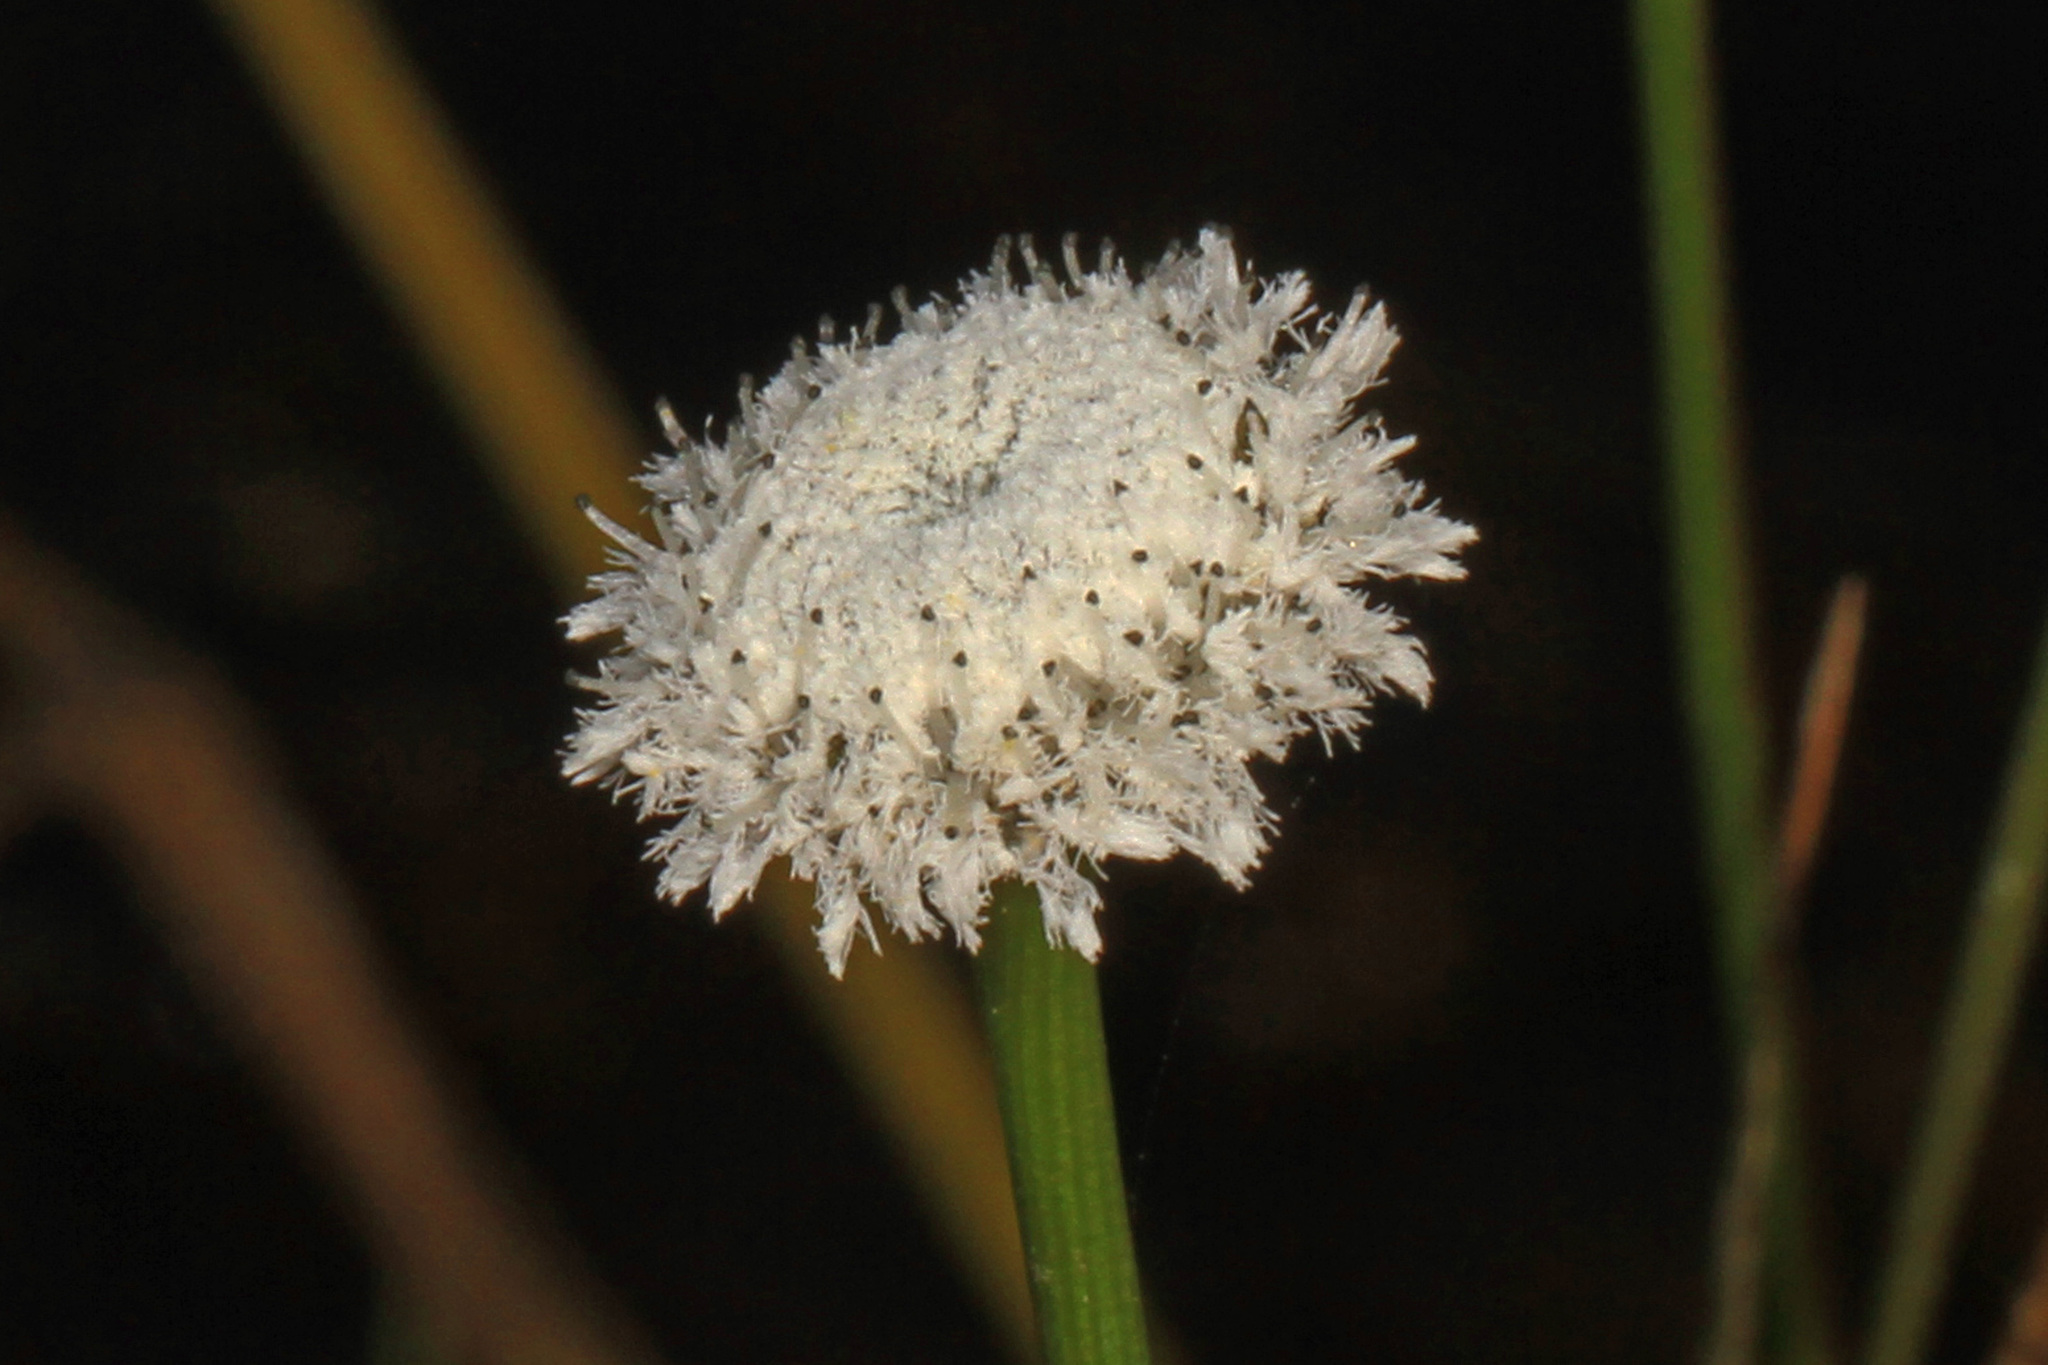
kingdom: Plantae
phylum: Tracheophyta
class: Liliopsida
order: Poales
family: Eriocaulaceae
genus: Eriocaulon
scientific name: Eriocaulon compressum
